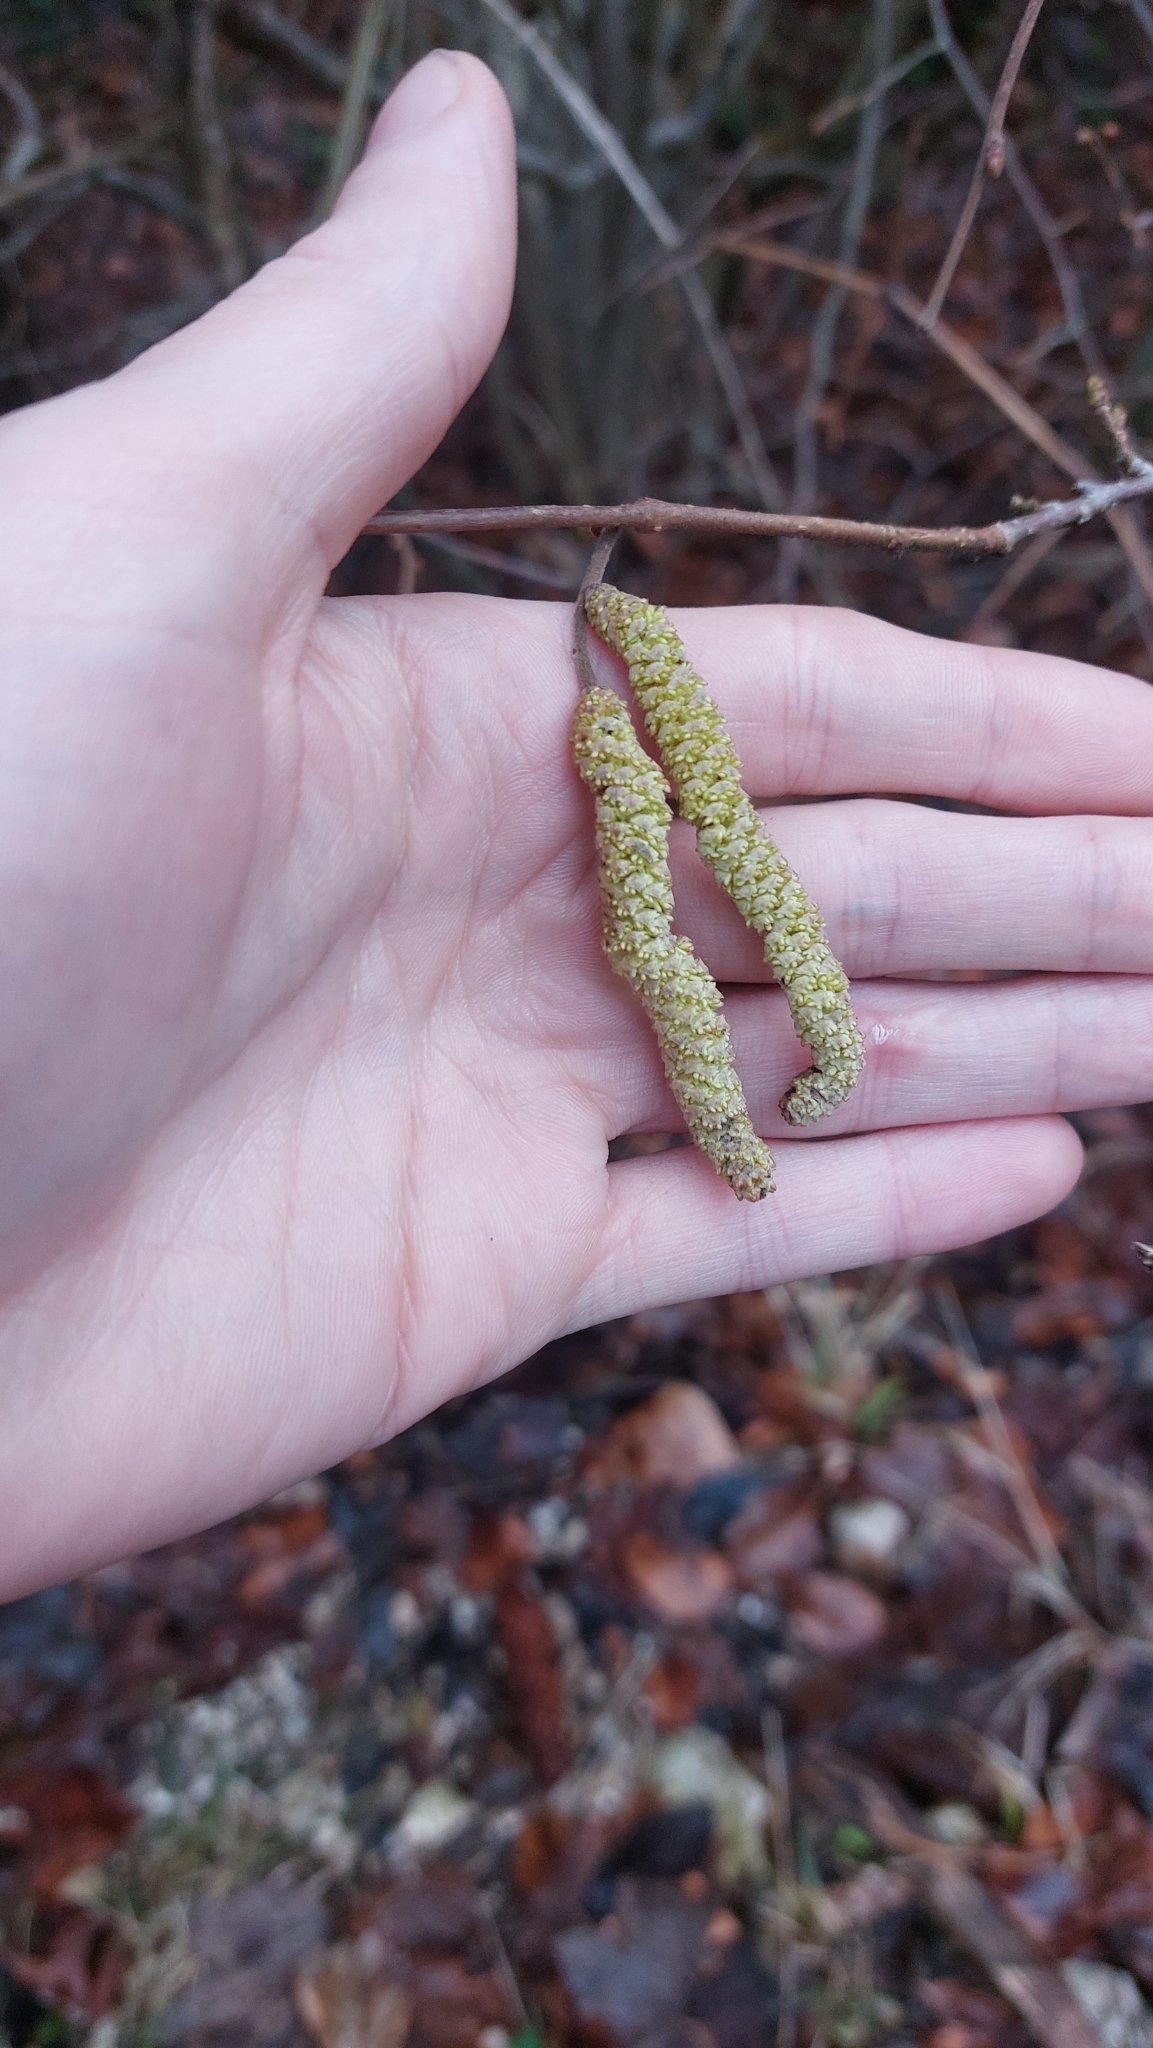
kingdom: Plantae
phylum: Tracheophyta
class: Magnoliopsida
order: Fagales
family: Betulaceae
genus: Corylus
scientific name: Corylus avellana
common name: European hazel
